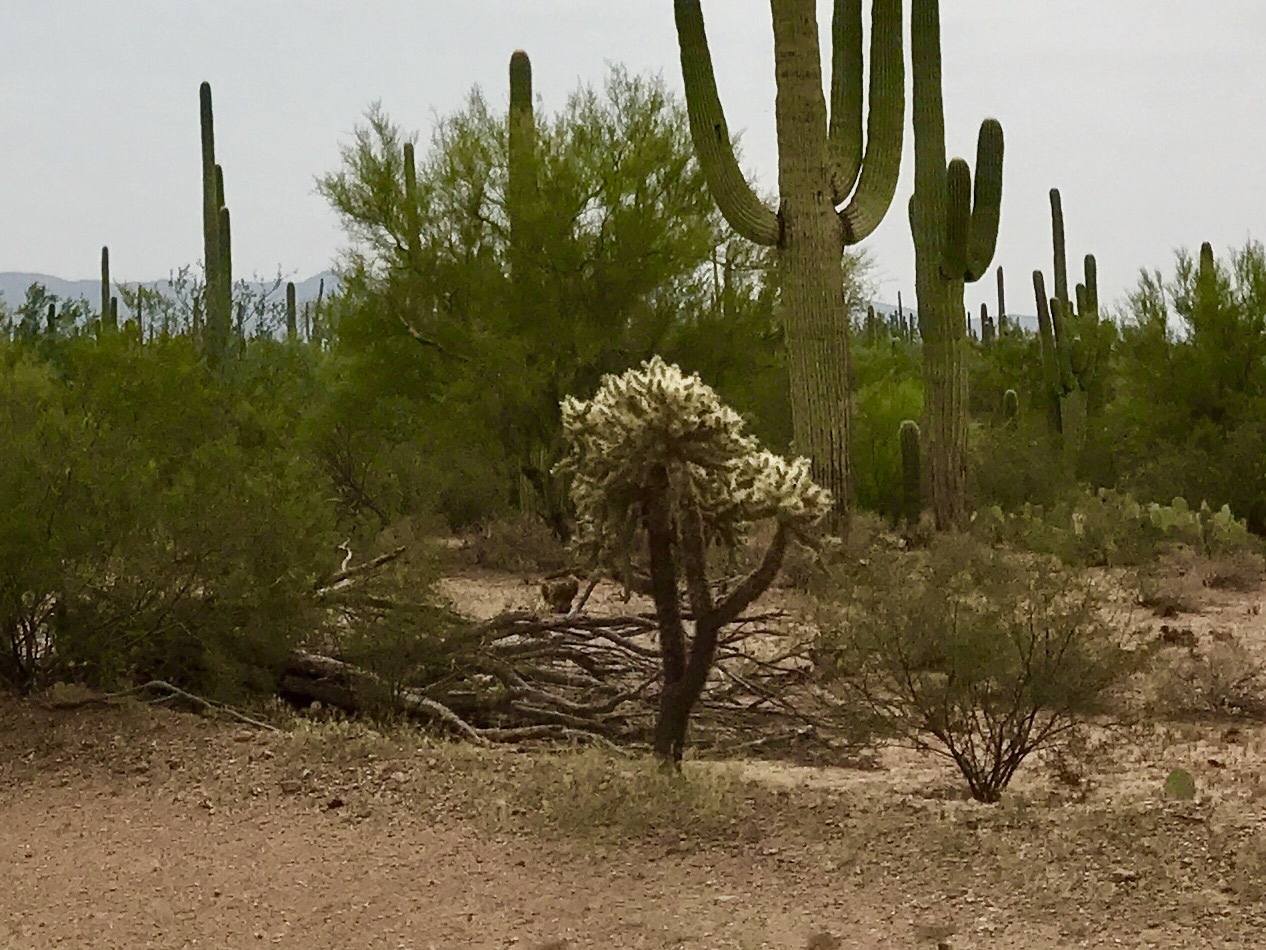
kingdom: Plantae
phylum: Tracheophyta
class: Magnoliopsida
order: Caryophyllales
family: Cactaceae
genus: Cylindropuntia
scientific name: Cylindropuntia fulgida
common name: Jumping cholla
